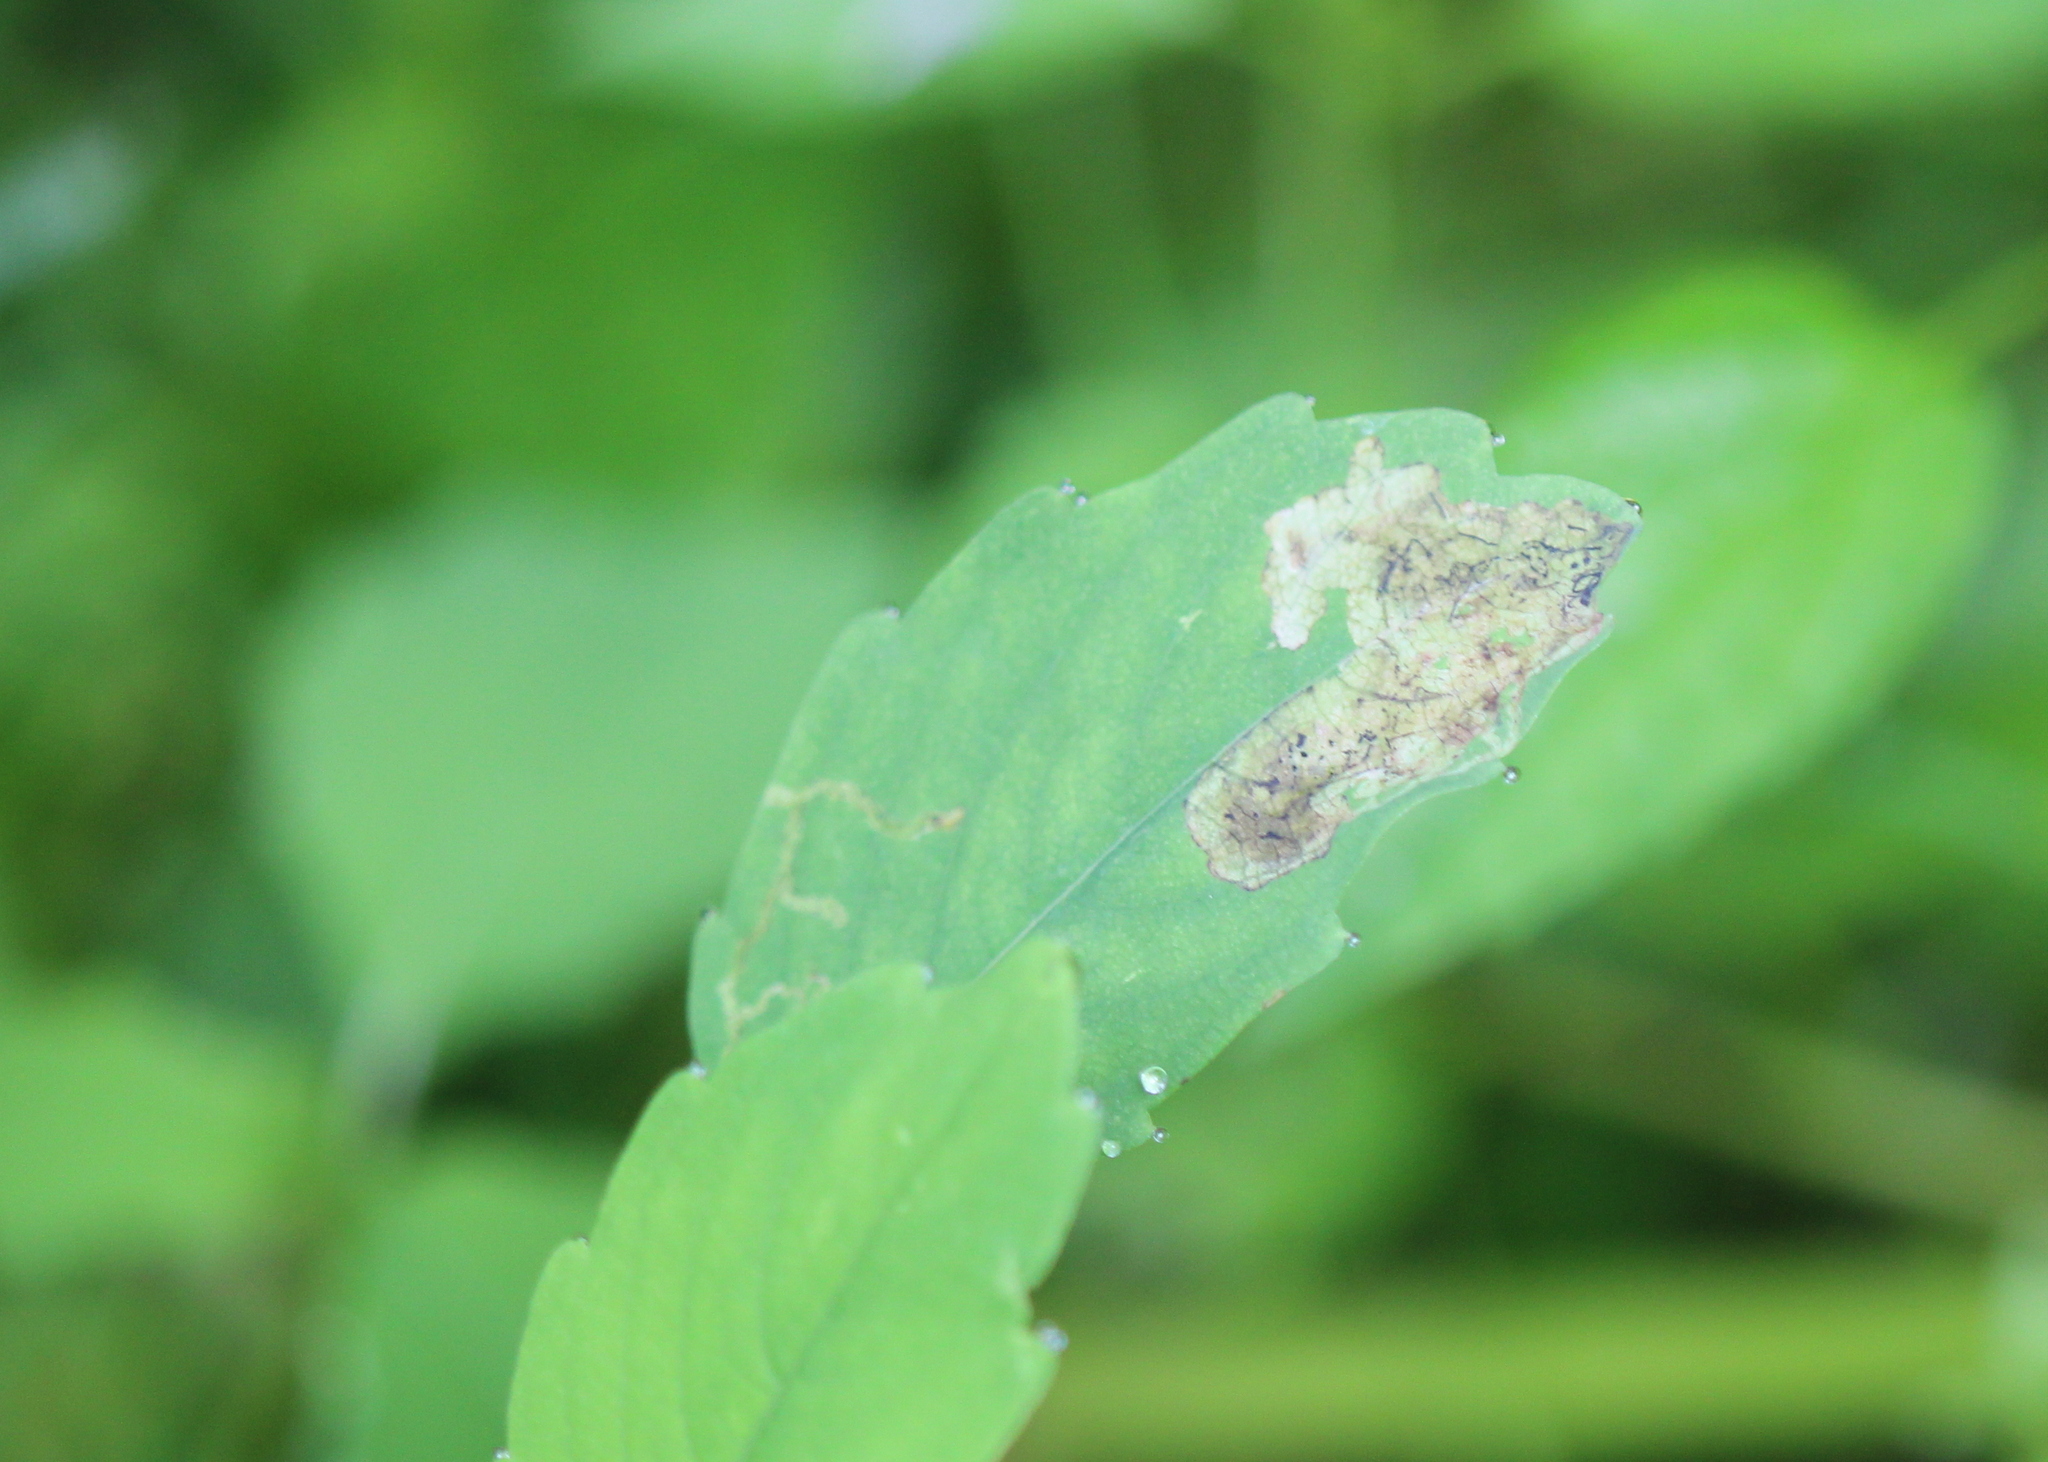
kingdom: Animalia
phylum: Arthropoda
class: Insecta
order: Diptera
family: Agromyzidae
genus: Phytoliriomyza
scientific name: Phytoliriomyza melampyga
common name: Jewelweed leaf-miner fly
